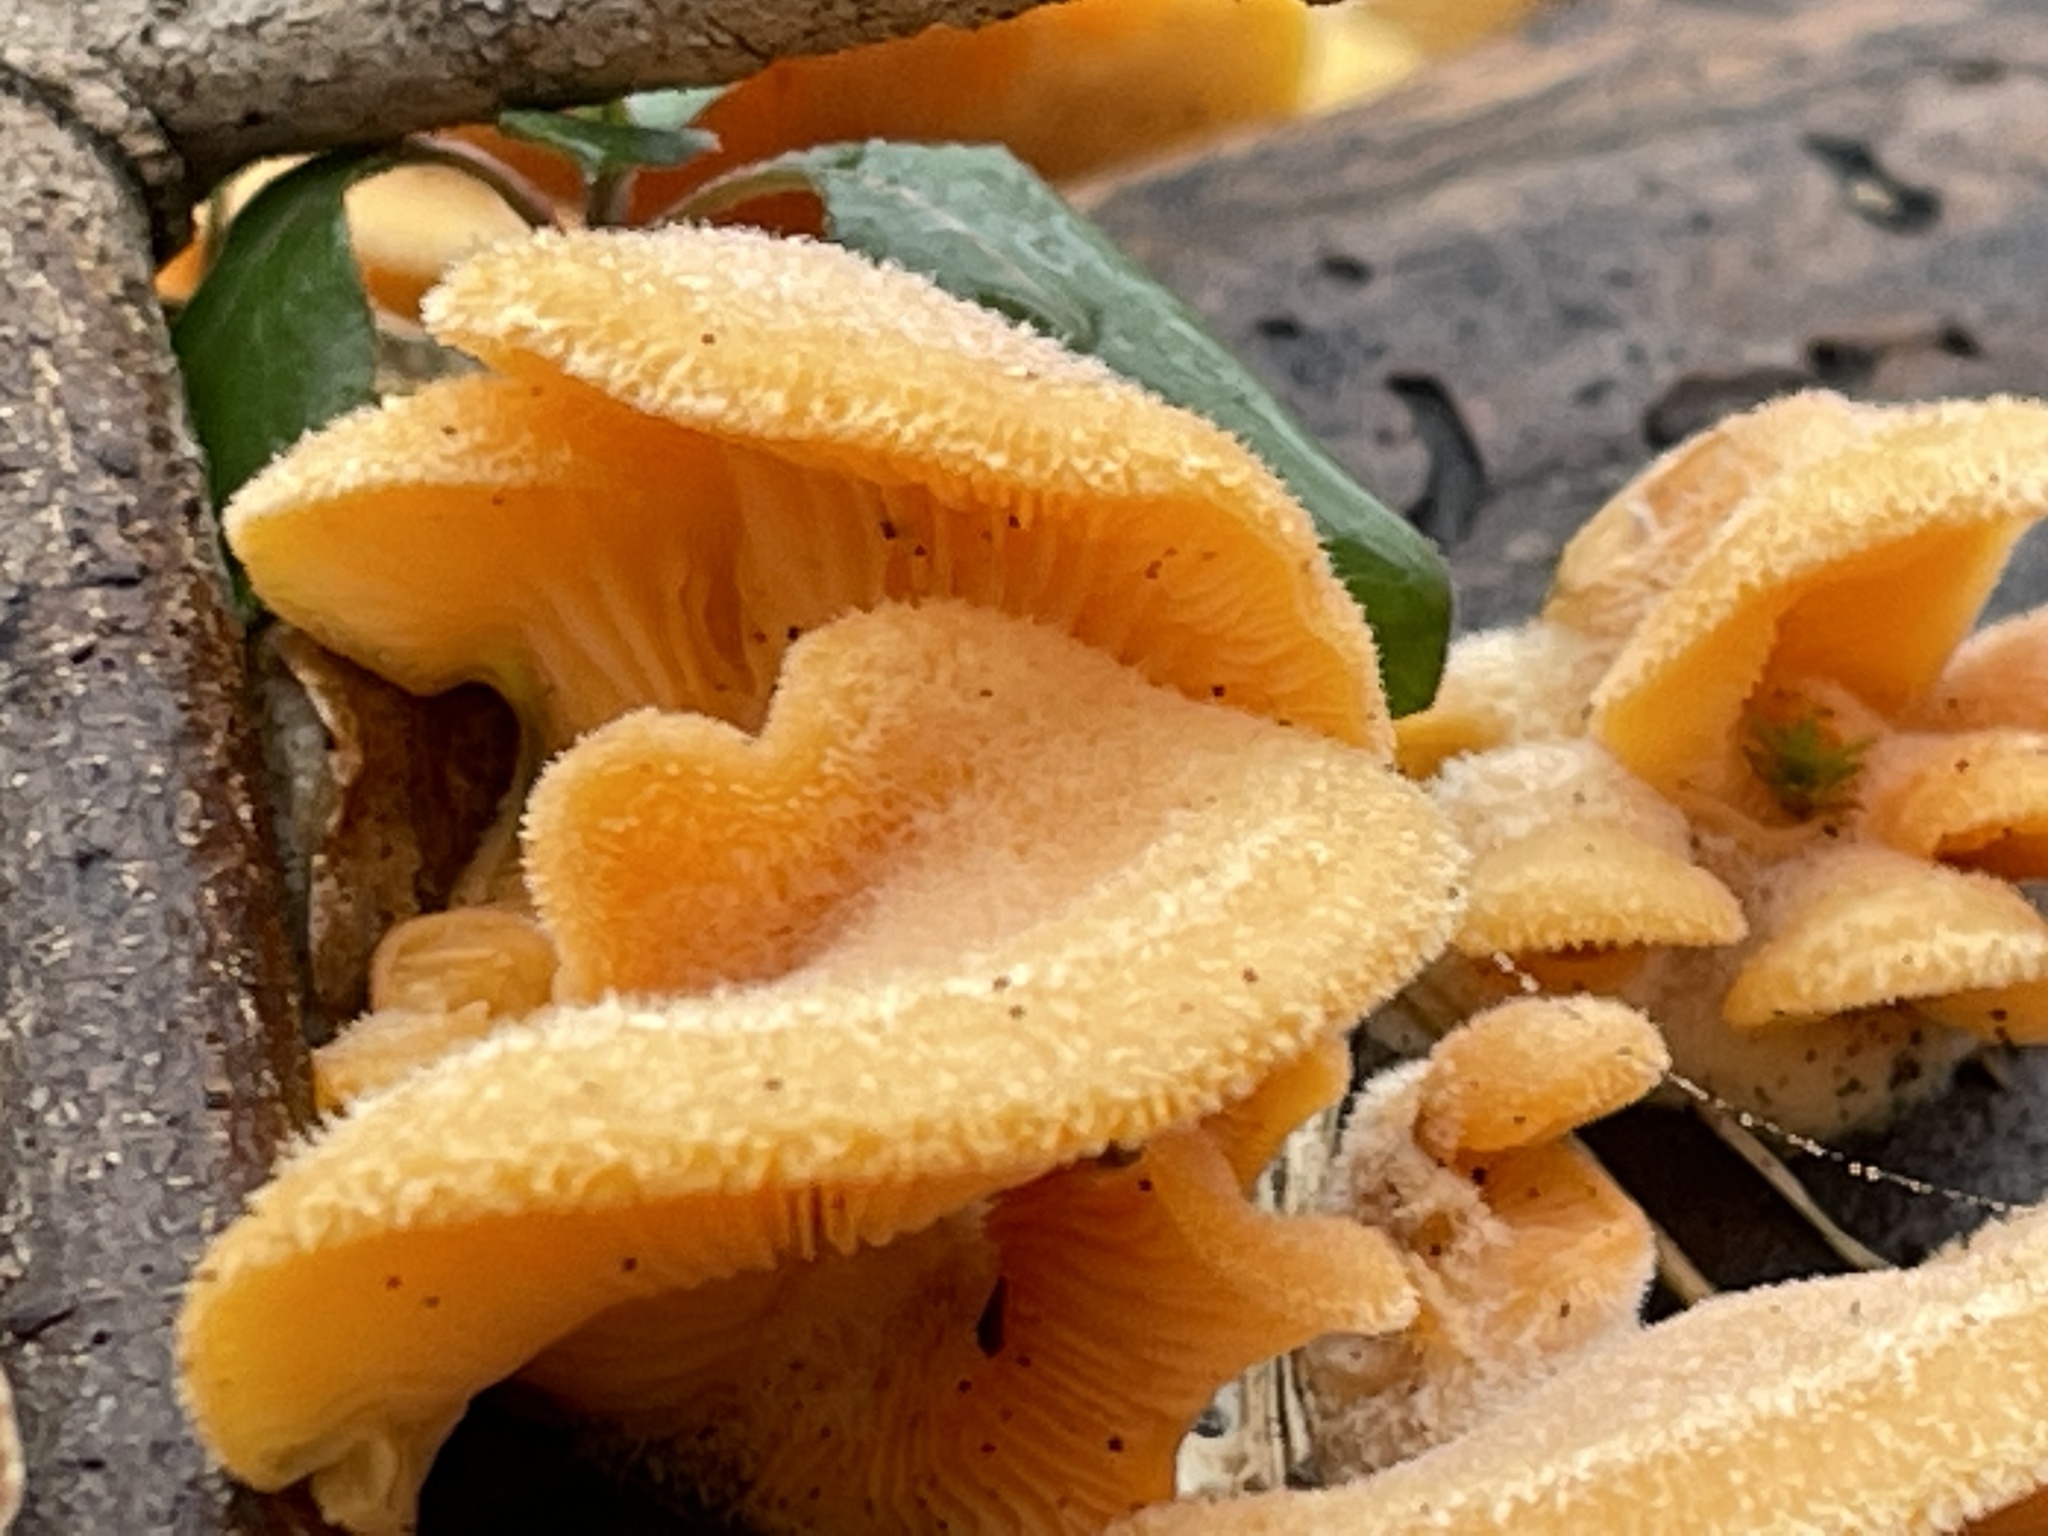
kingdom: Fungi
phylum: Basidiomycota
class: Agaricomycetes
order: Agaricales
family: Phyllotopsidaceae
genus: Phyllotopsis
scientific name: Phyllotopsis nidulans
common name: Orange mock oyster
